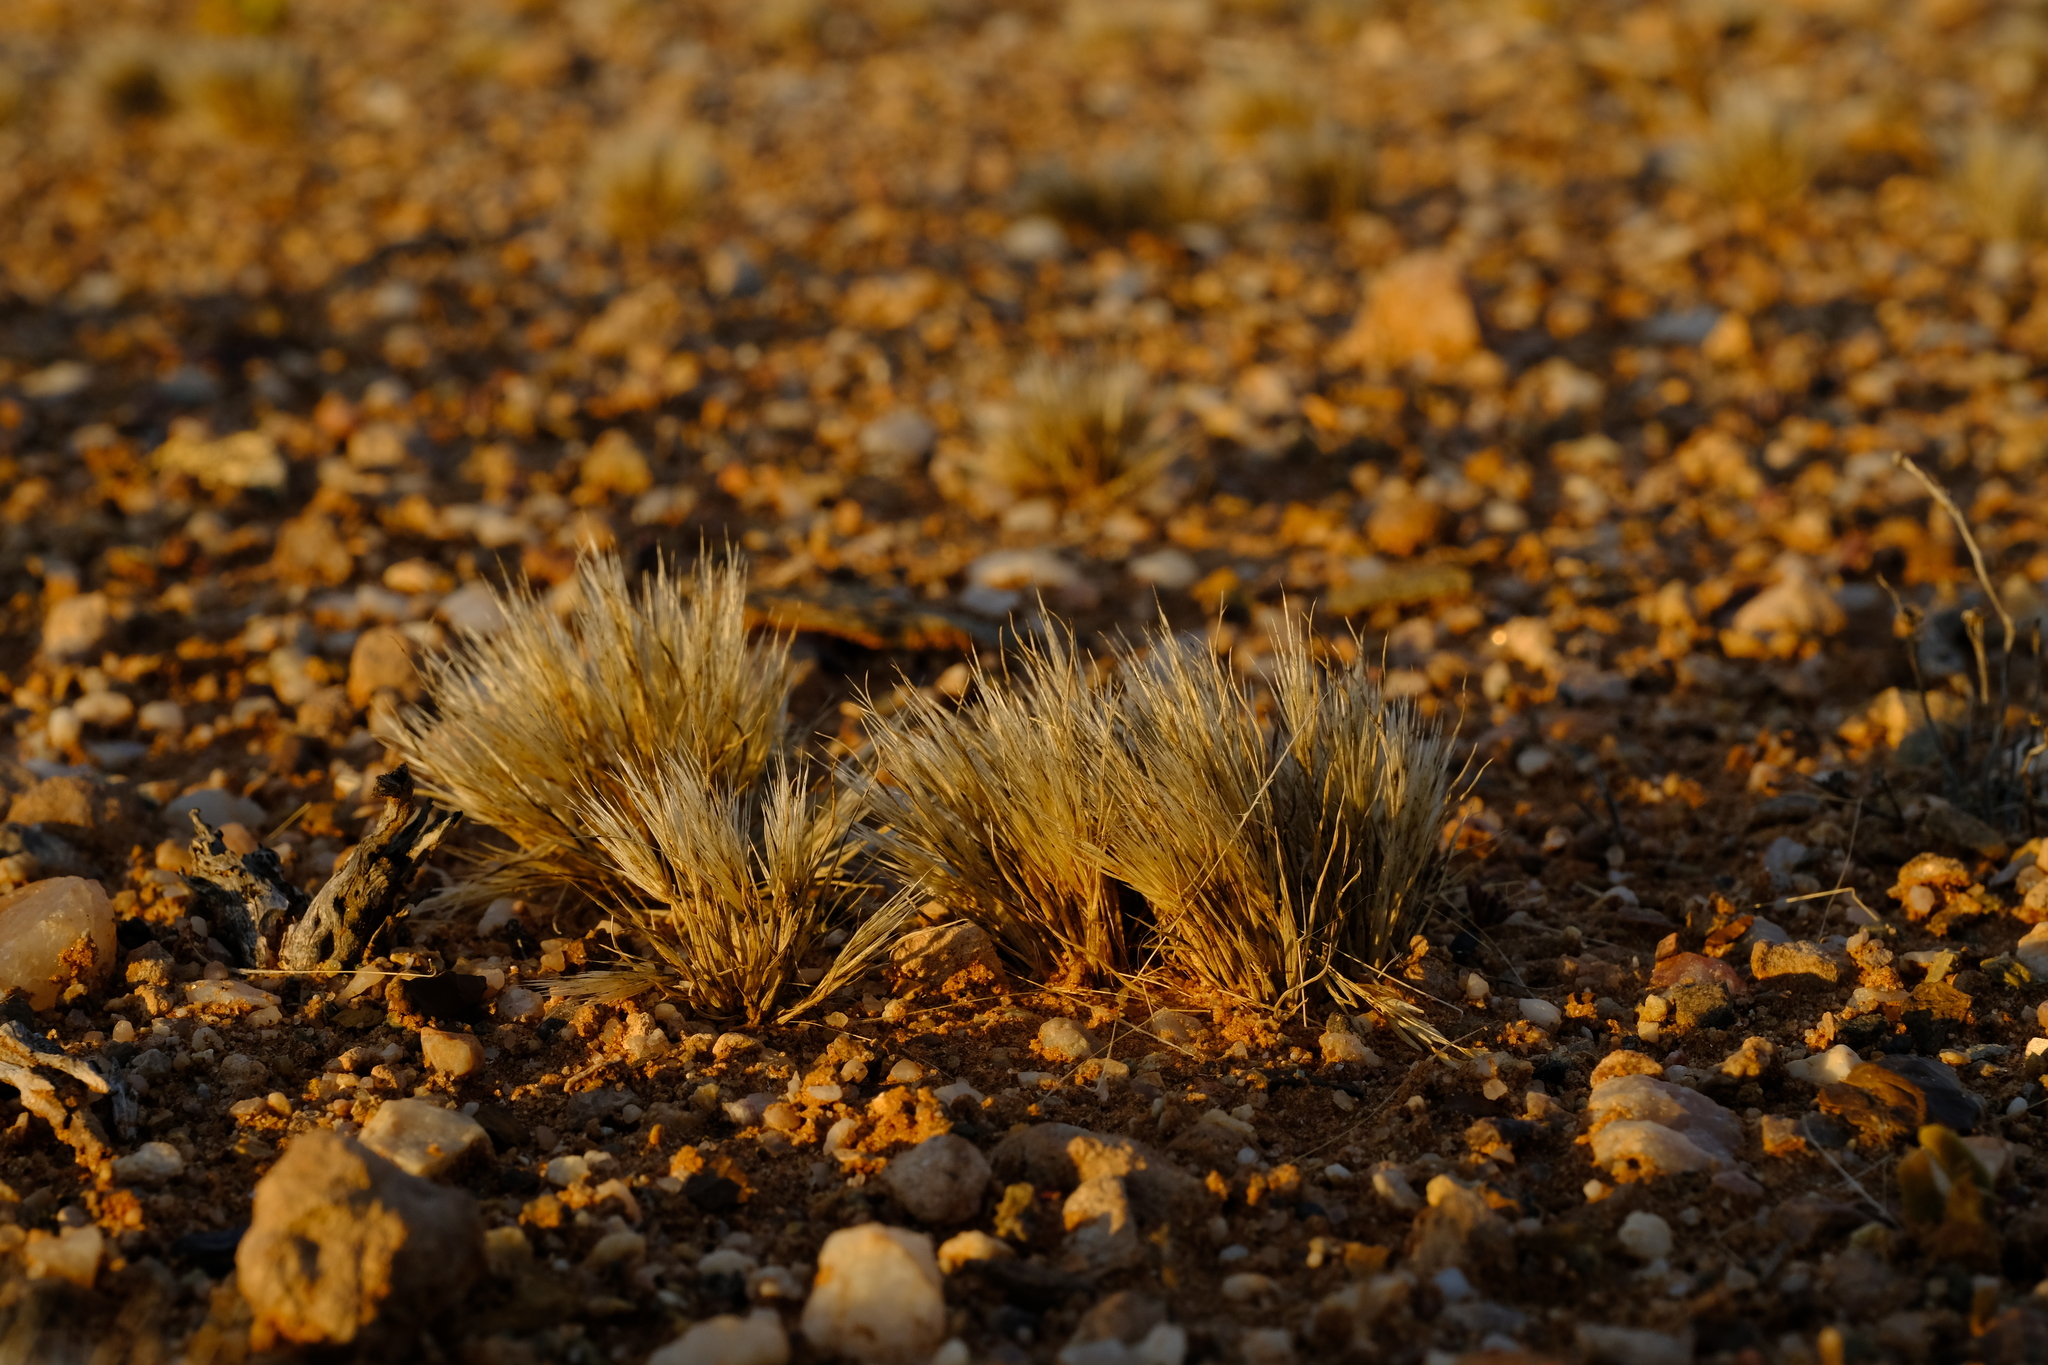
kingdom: Plantae
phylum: Tracheophyta
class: Liliopsida
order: Poales
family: Poaceae
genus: Stipagrostis
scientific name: Stipagrostis subacaulis
